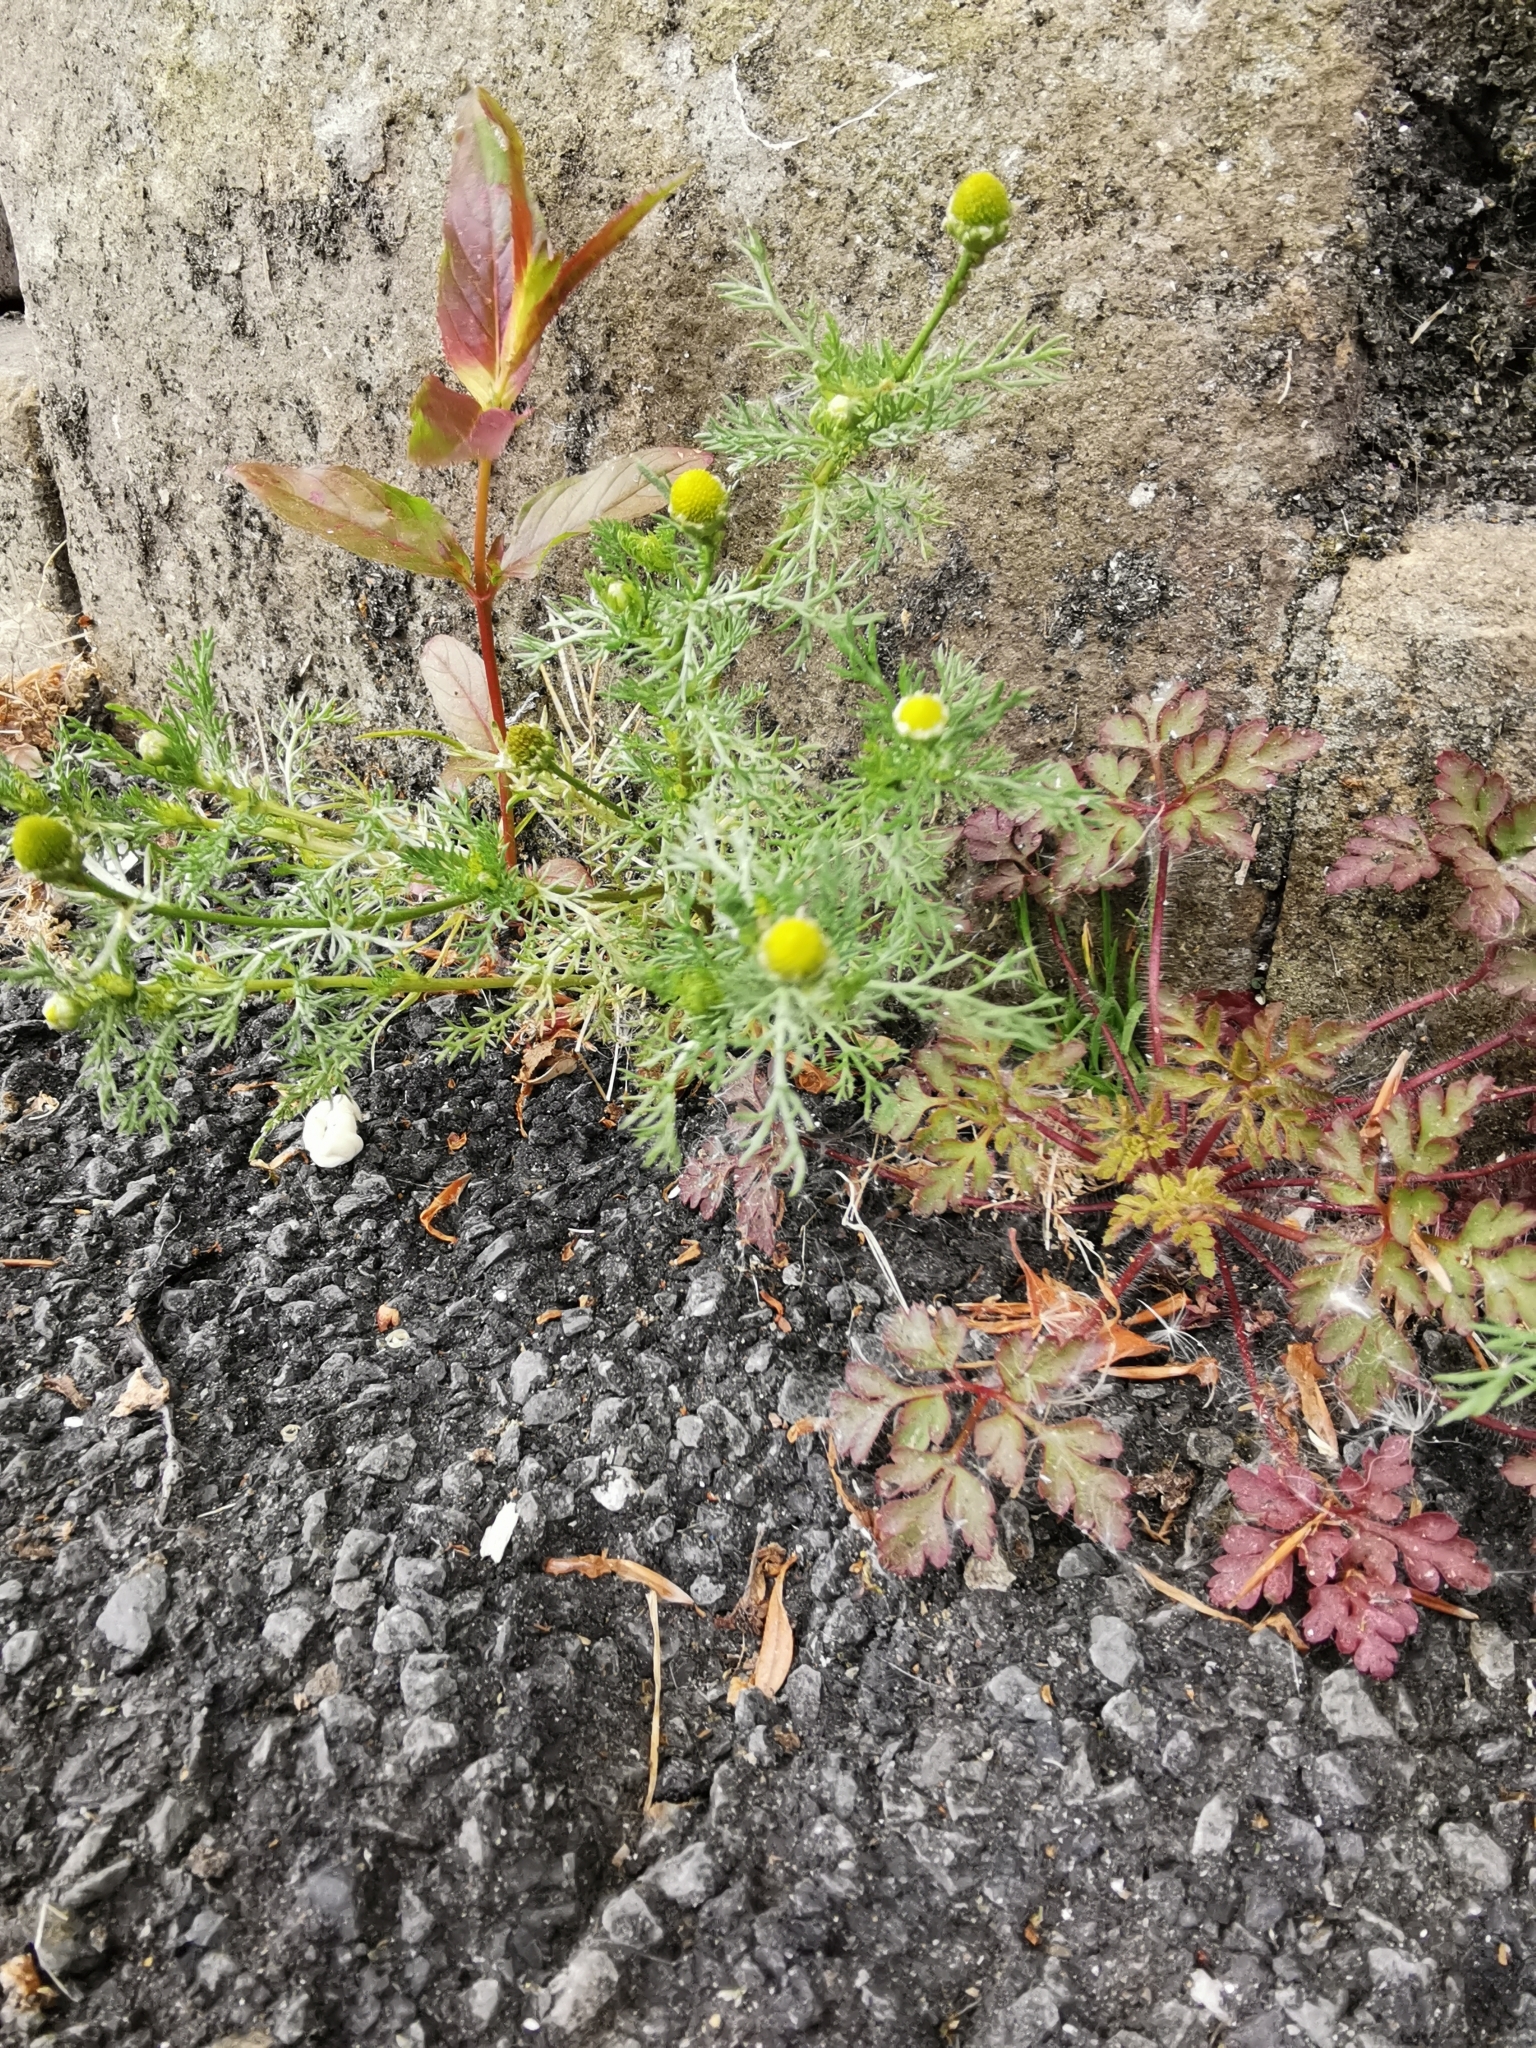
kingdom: Plantae
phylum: Tracheophyta
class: Magnoliopsida
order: Asterales
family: Asteraceae
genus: Matricaria
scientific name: Matricaria discoidea
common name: Disc mayweed
